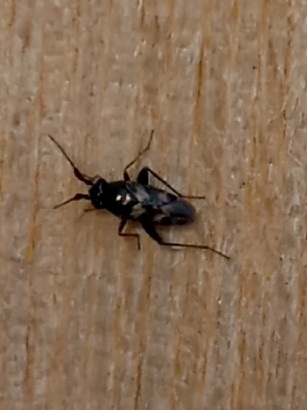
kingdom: Animalia
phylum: Arthropoda
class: Insecta
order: Hemiptera
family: Miridae
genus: Spanagonicus
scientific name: Spanagonicus albofasciatus
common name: Whitemarked fleahopper
